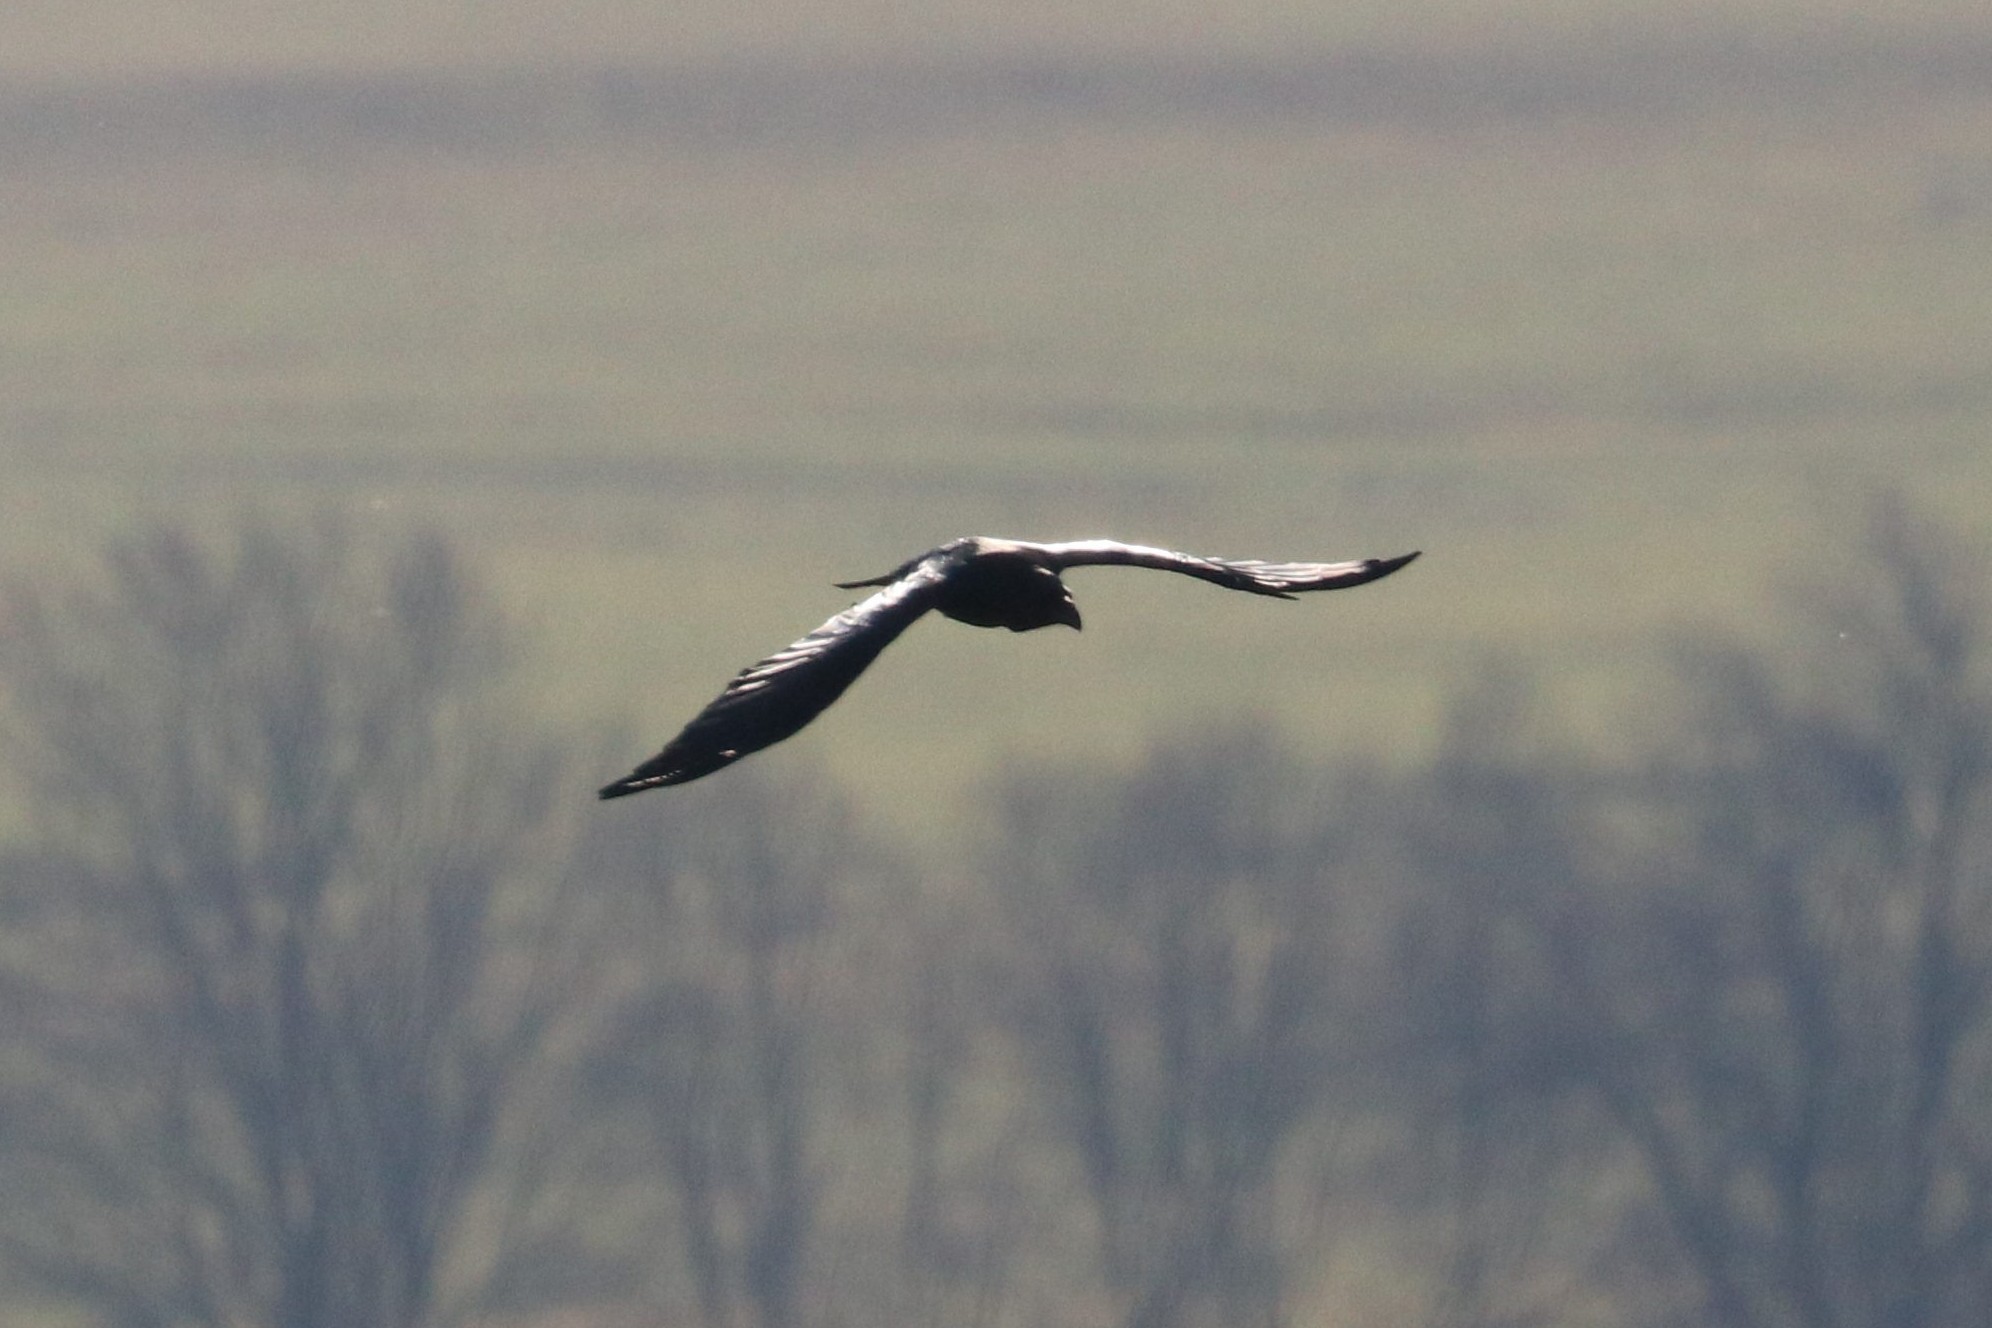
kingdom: Animalia
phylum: Chordata
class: Aves
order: Passeriformes
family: Corvidae
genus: Corvus
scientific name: Corvus corax
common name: Common raven
